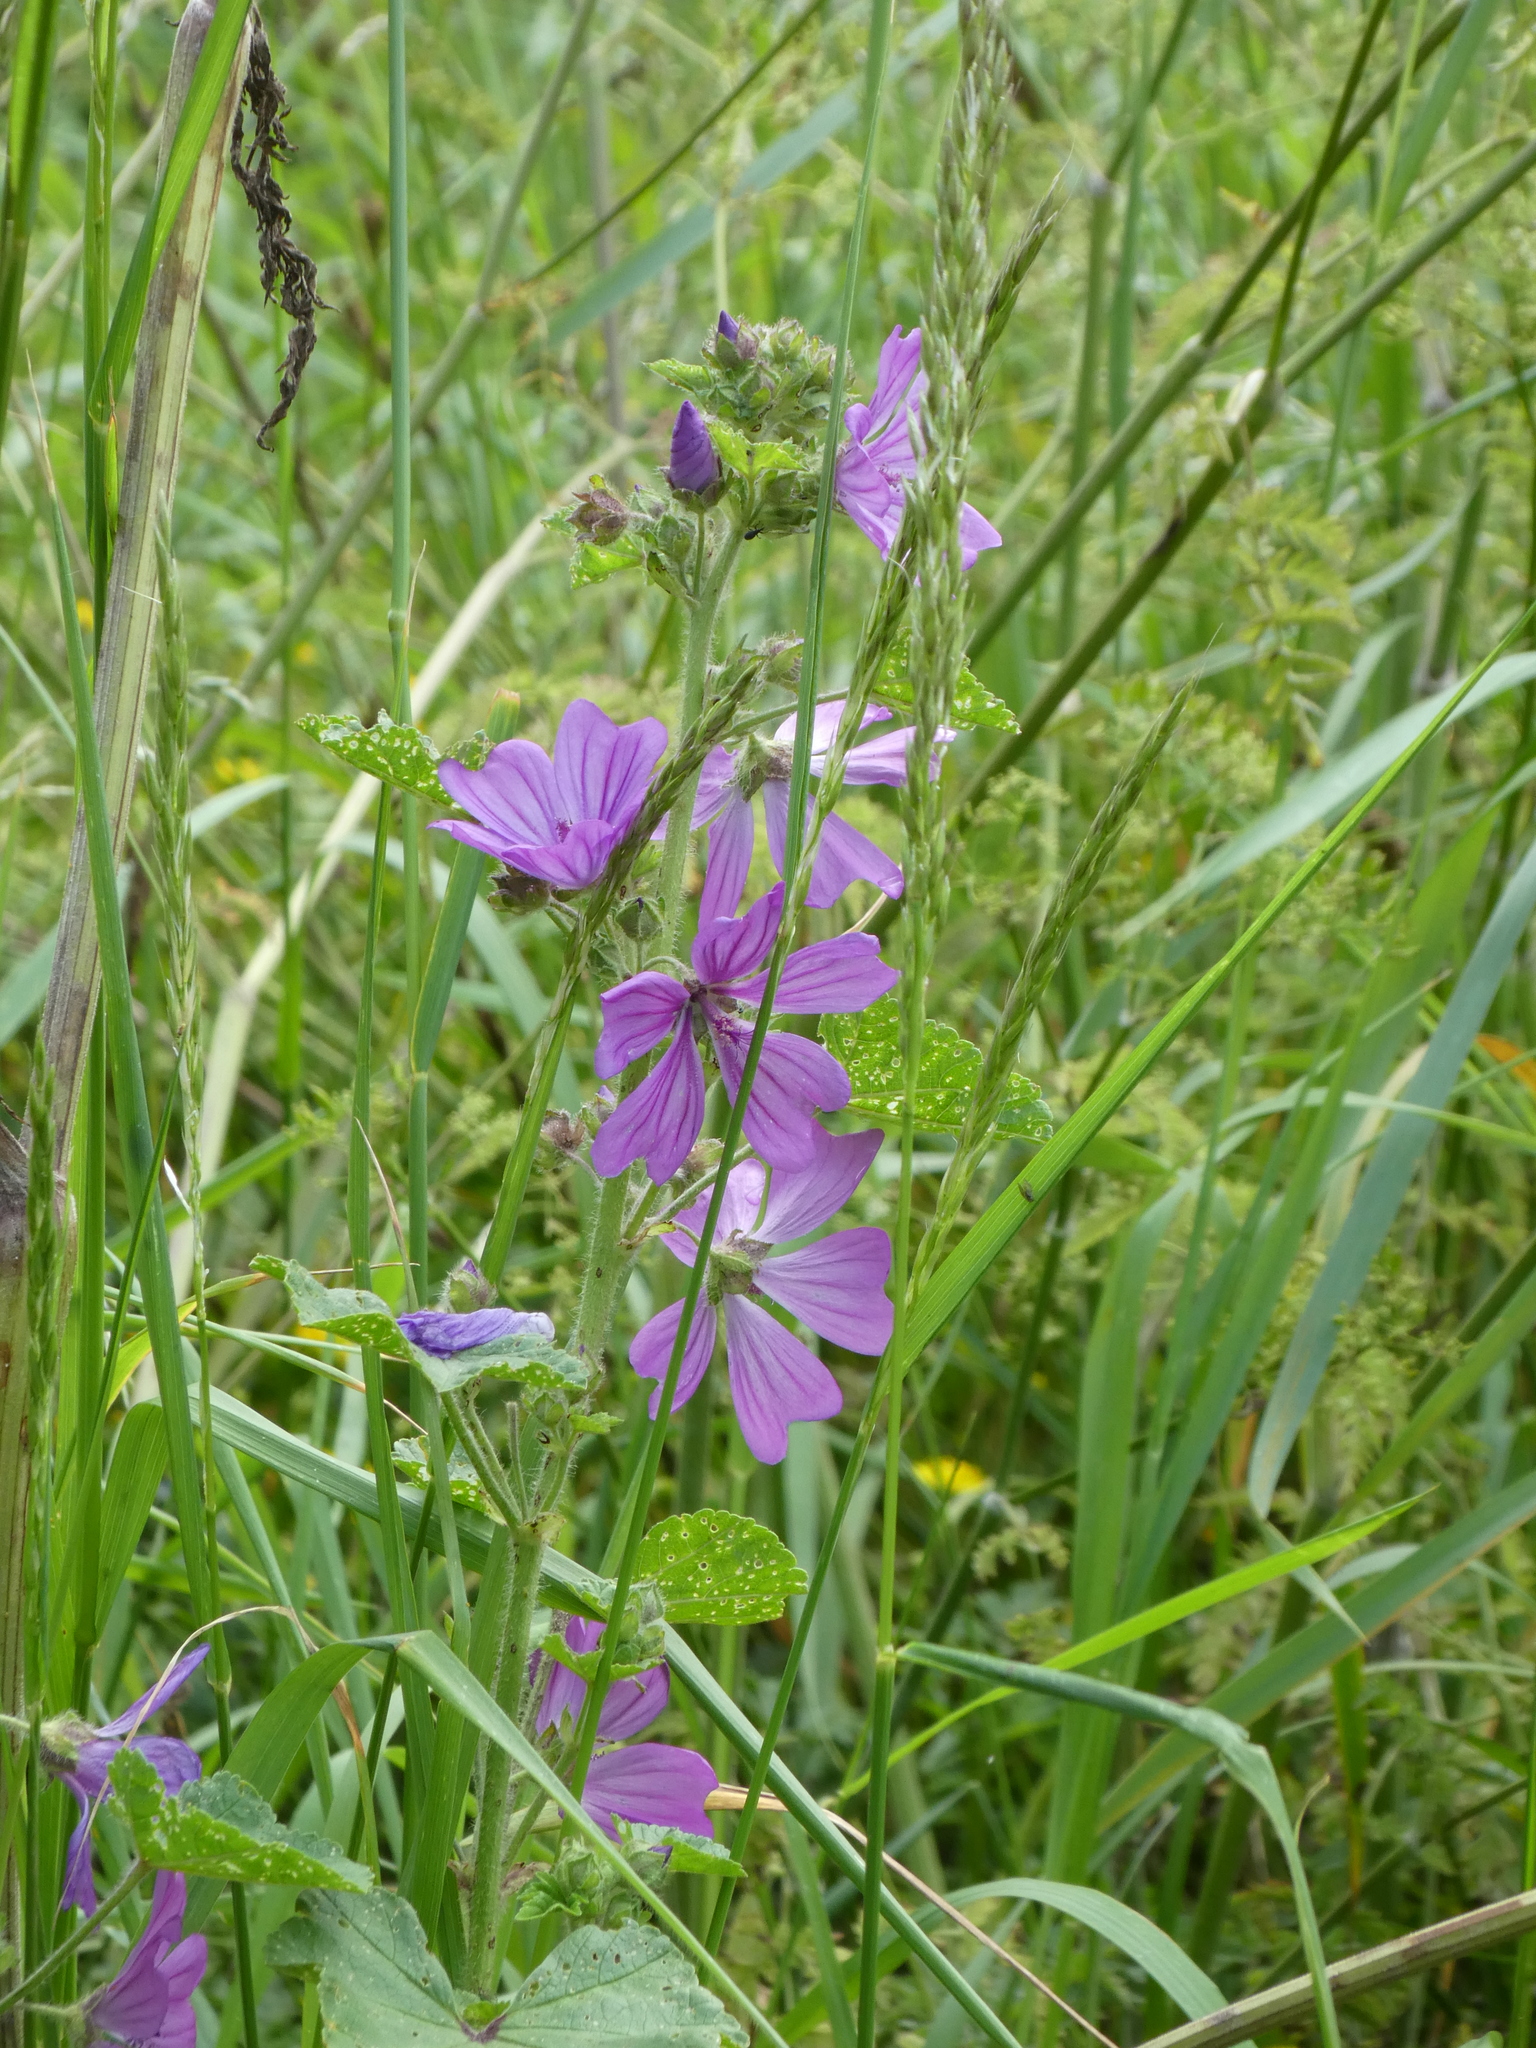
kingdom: Plantae
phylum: Tracheophyta
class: Magnoliopsida
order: Malvales
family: Malvaceae
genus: Malva
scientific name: Malva sylvestris
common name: Common mallow
